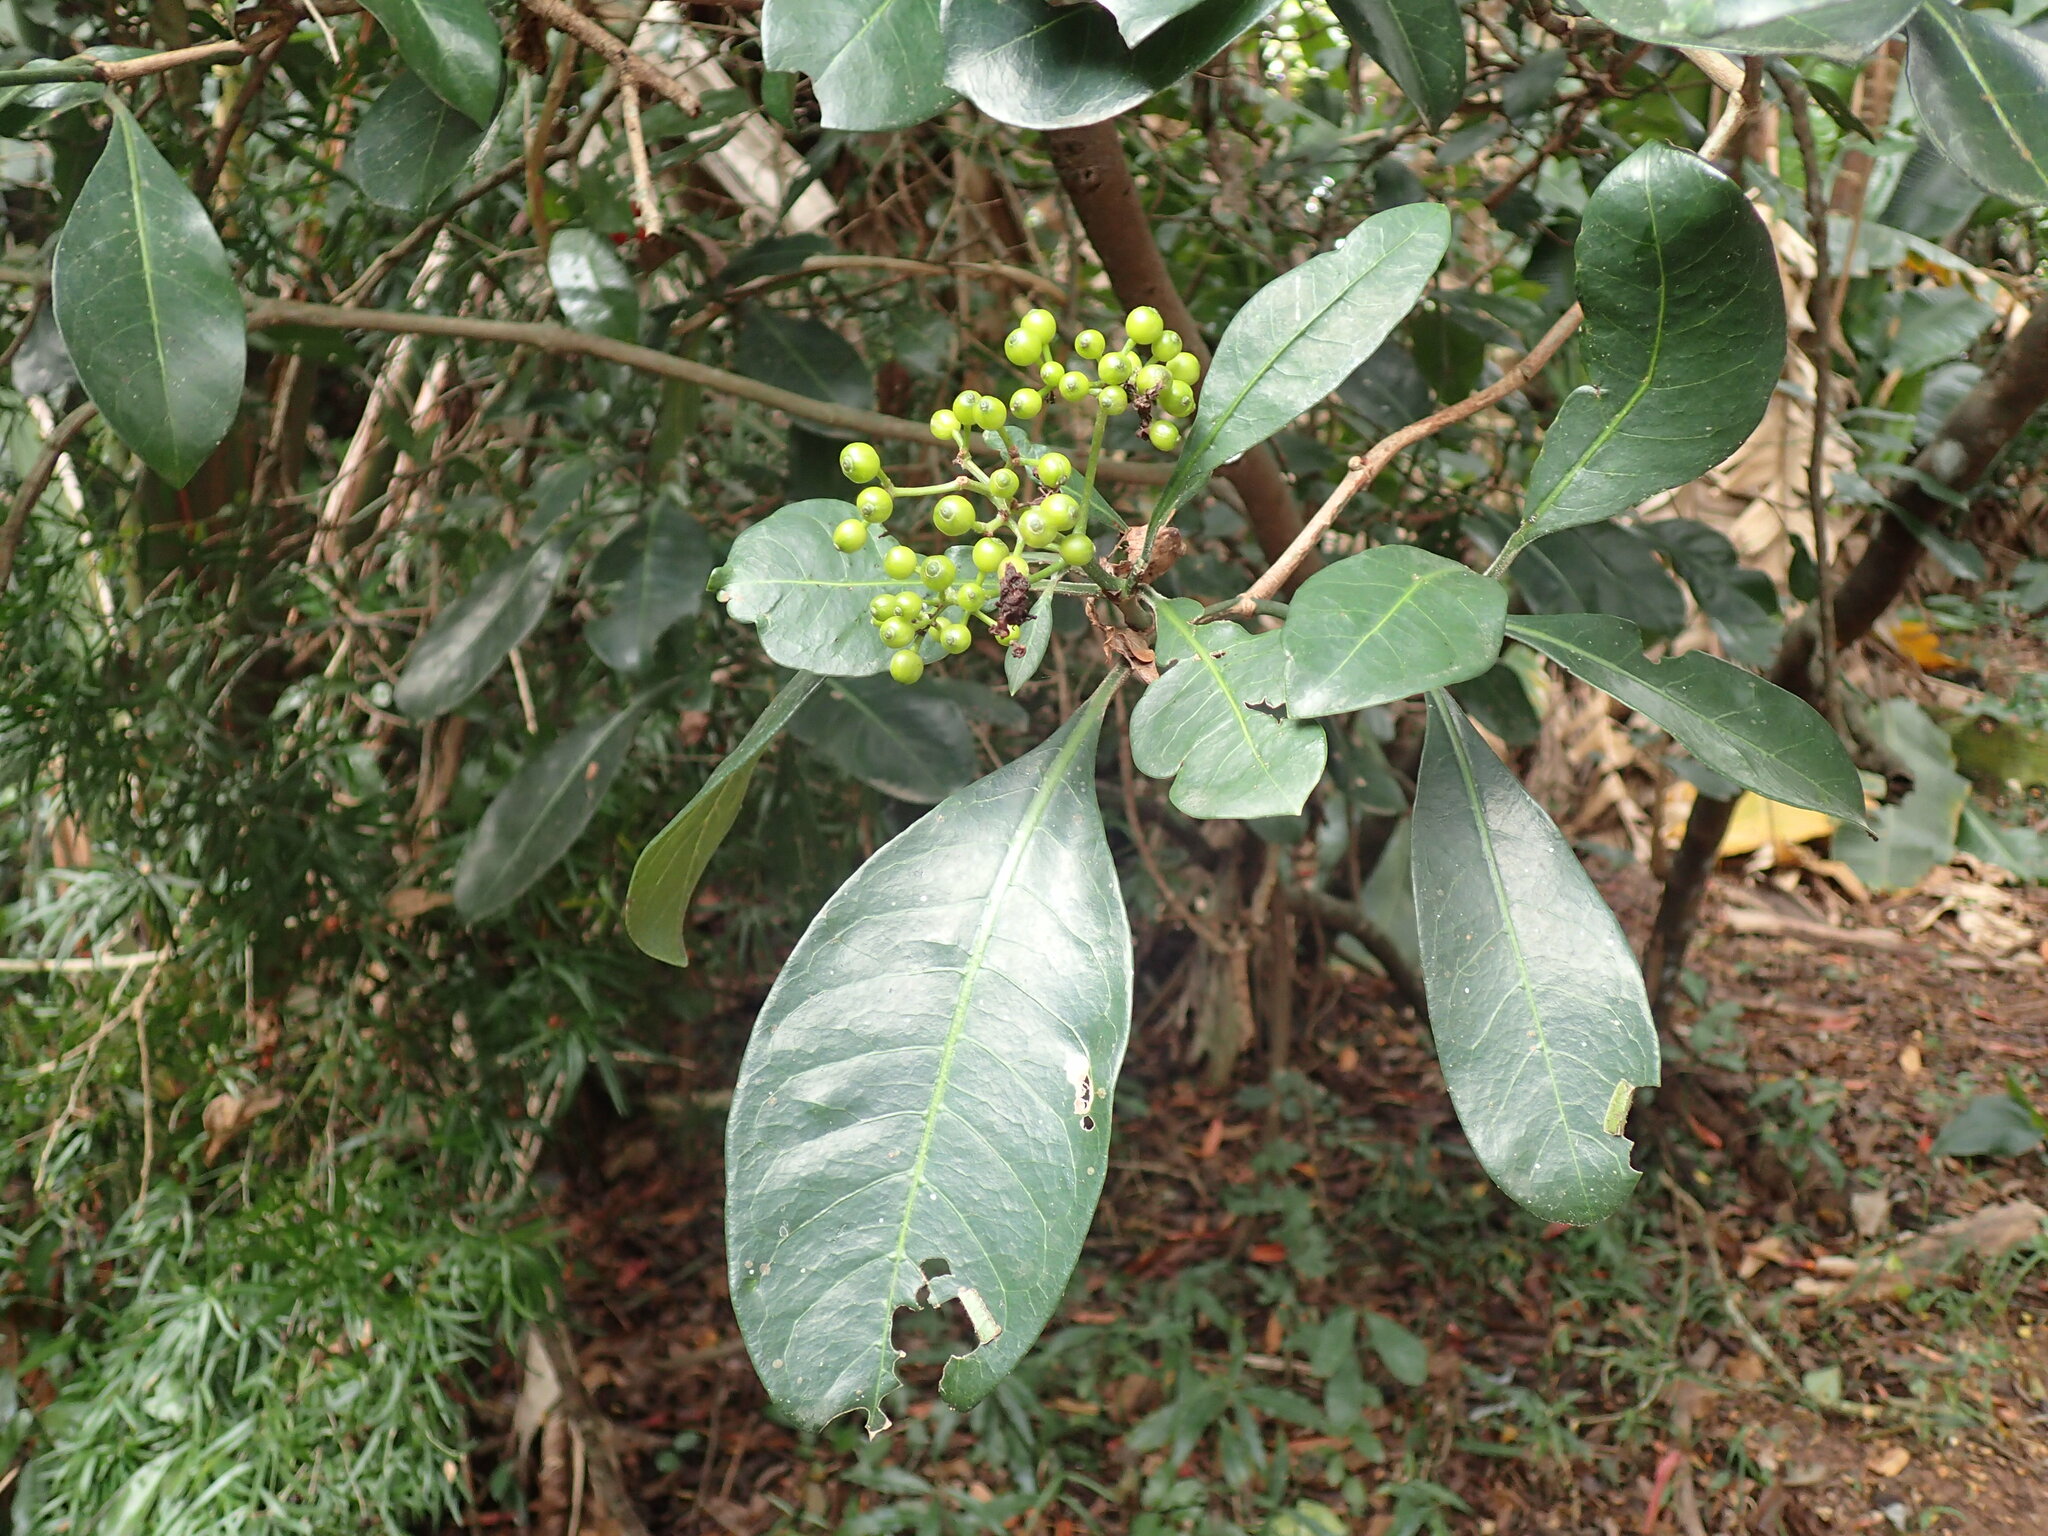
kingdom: Plantae
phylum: Tracheophyta
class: Magnoliopsida
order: Gentianales
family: Rubiaceae
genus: Psychotria
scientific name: Psychotria capensis
